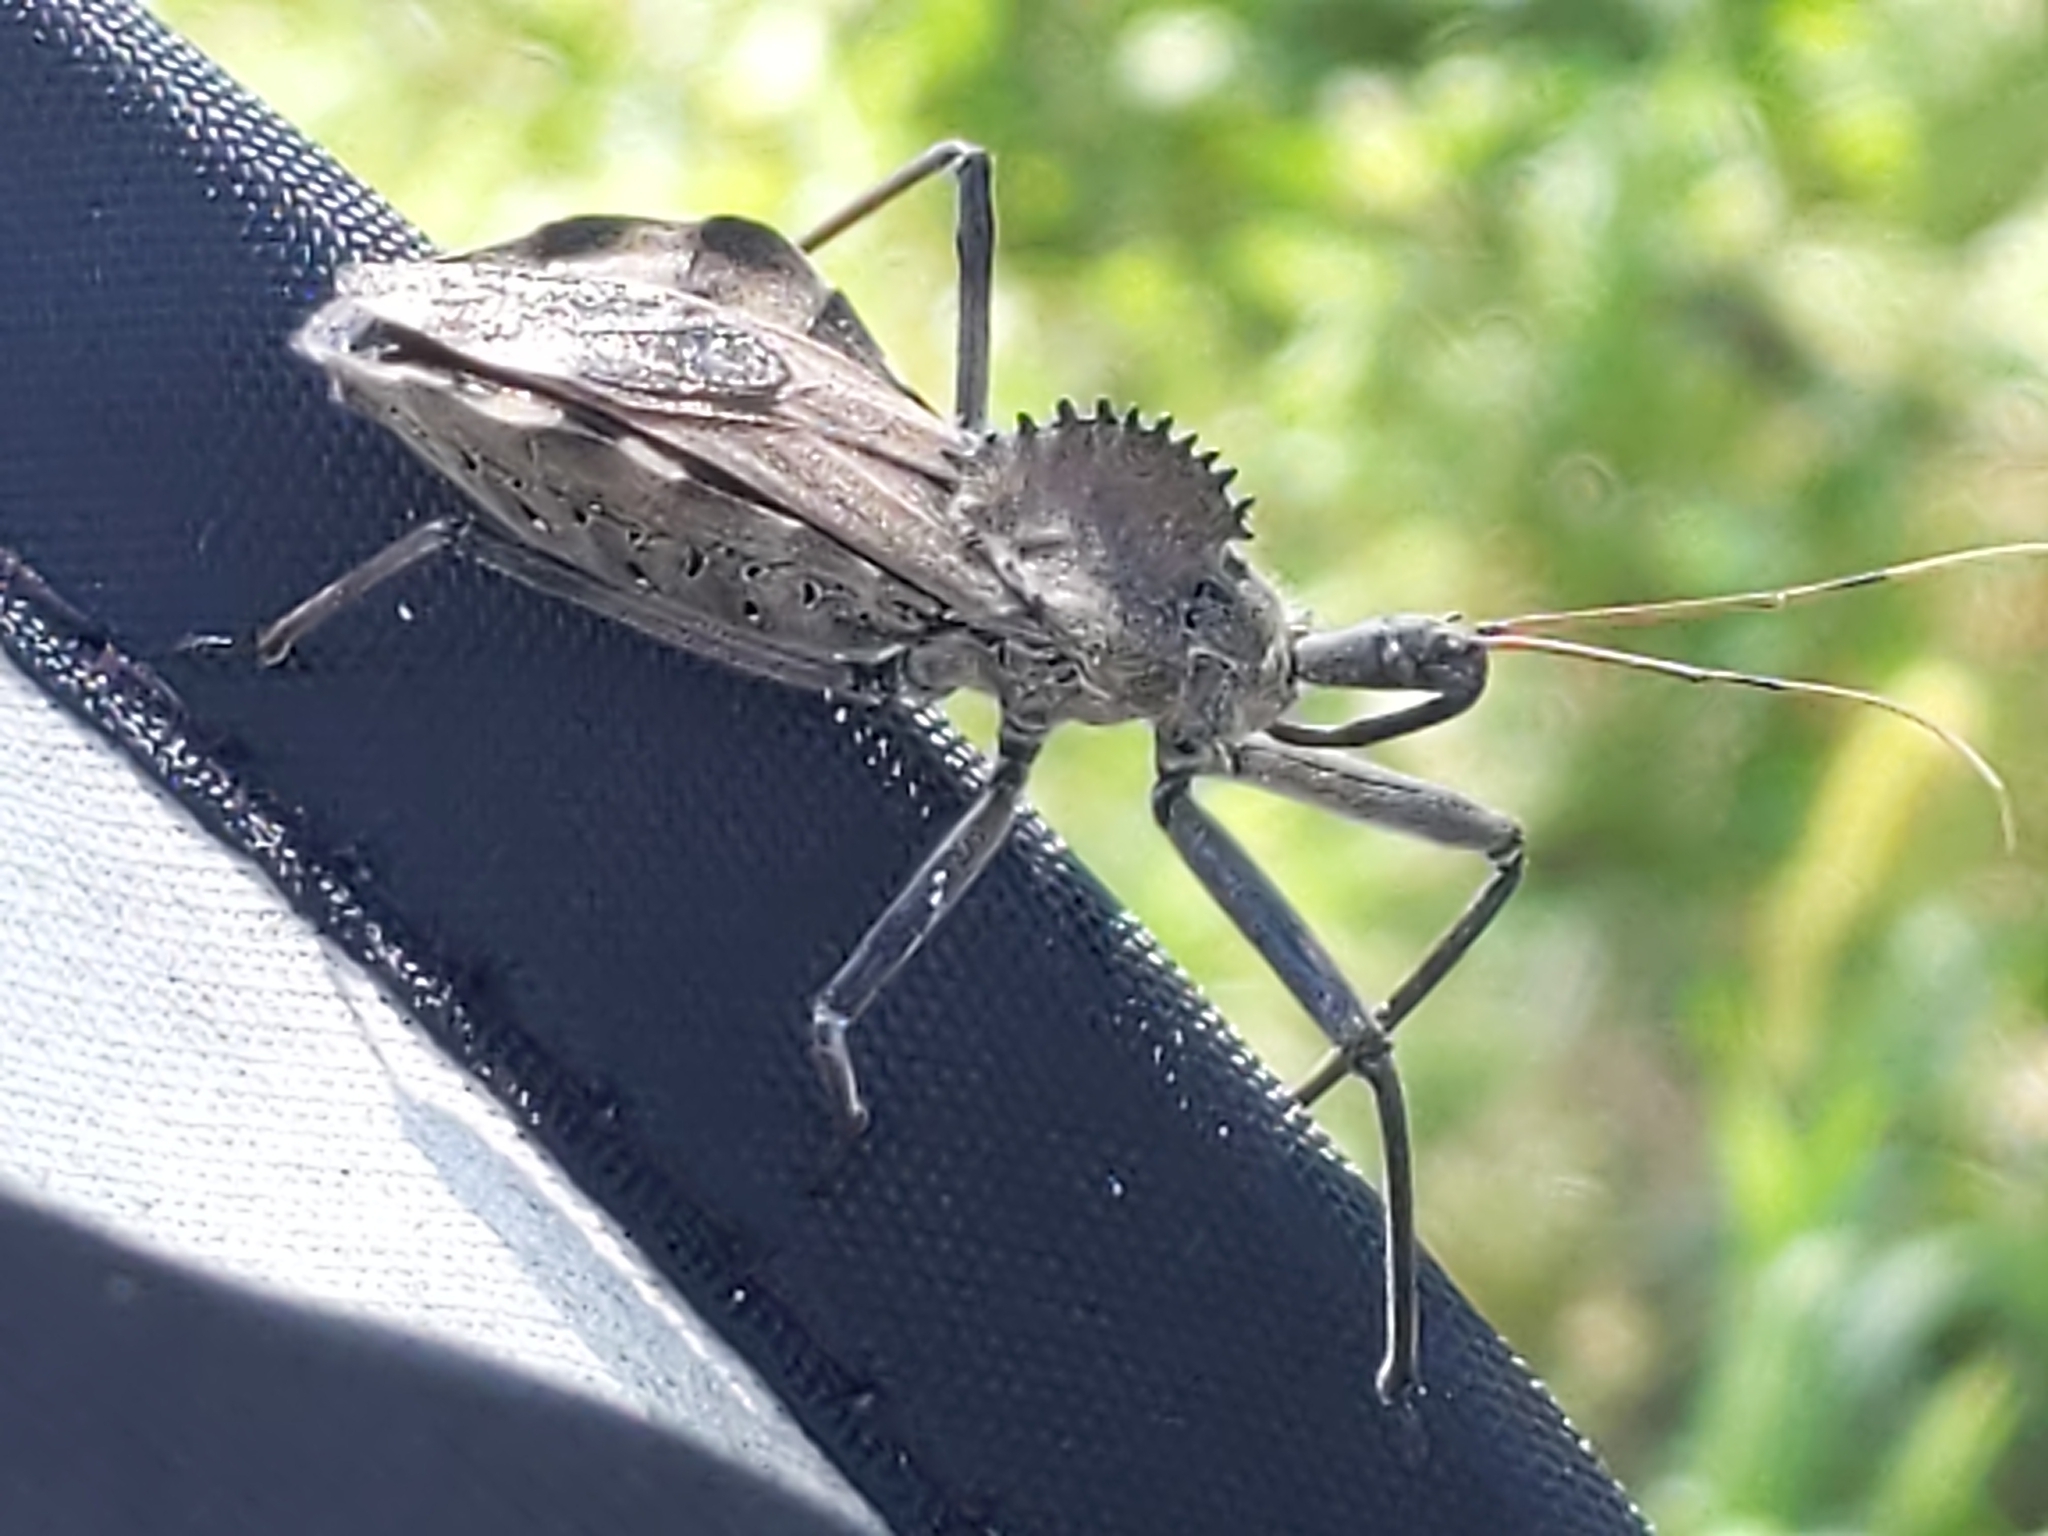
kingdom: Animalia
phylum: Arthropoda
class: Insecta
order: Hemiptera
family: Reduviidae
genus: Arilus
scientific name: Arilus cristatus
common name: North american wheel bug
